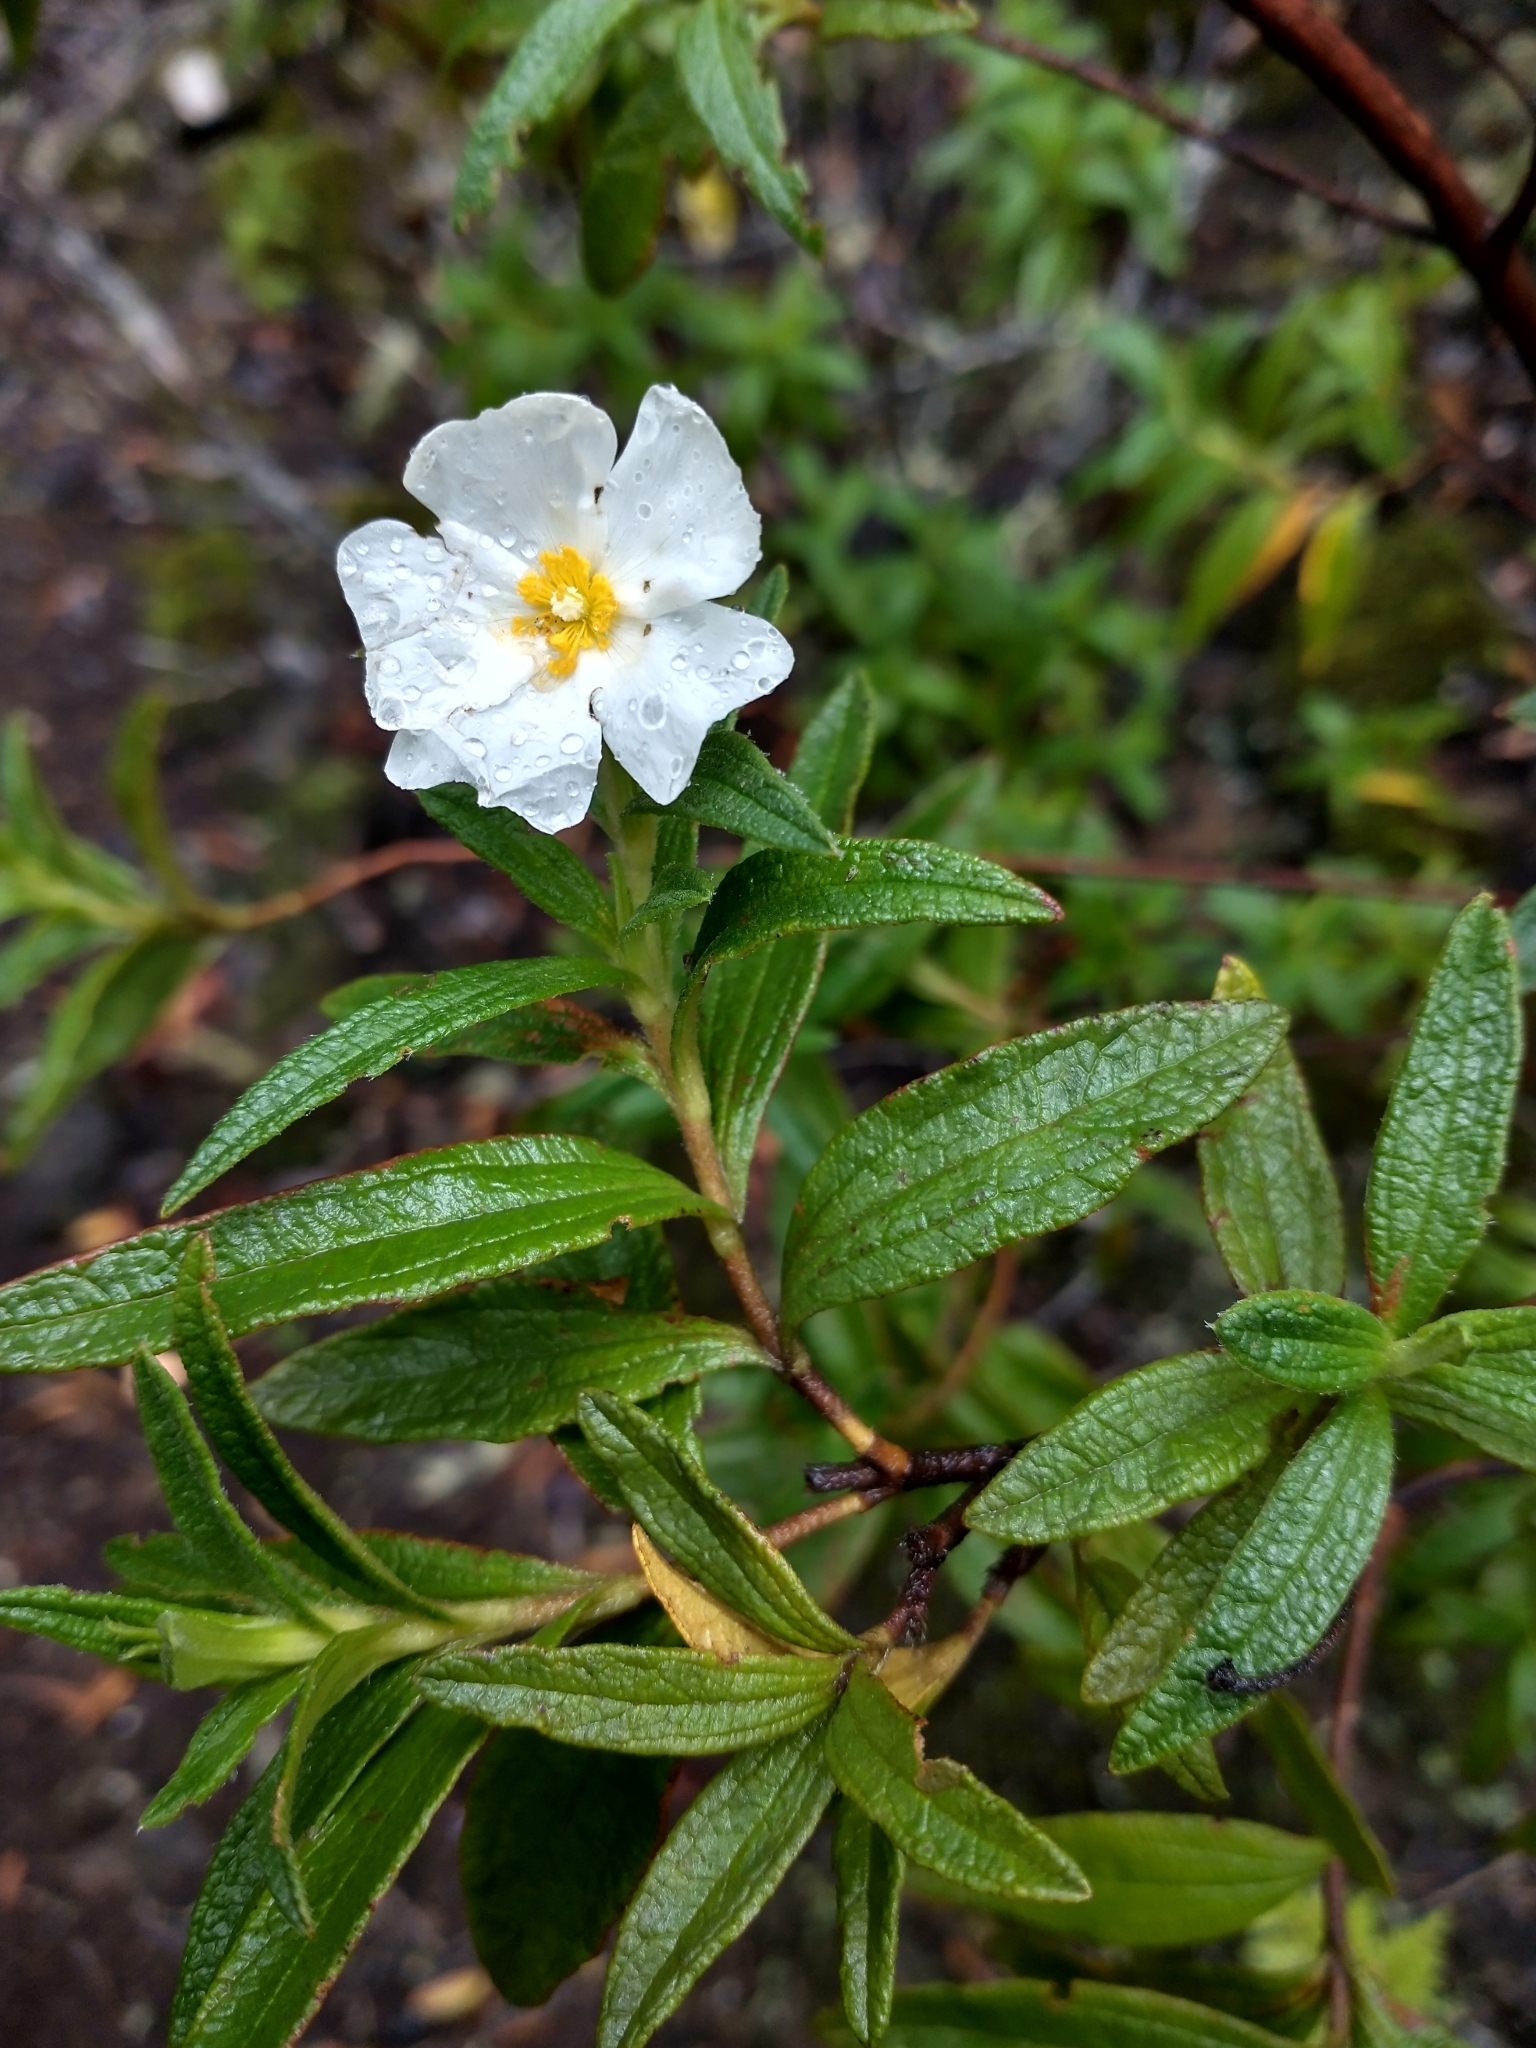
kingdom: Plantae
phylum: Tracheophyta
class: Magnoliopsida
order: Malvales
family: Cistaceae
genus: Cistus
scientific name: Cistus monspeliensis
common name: Montpelier cistus
